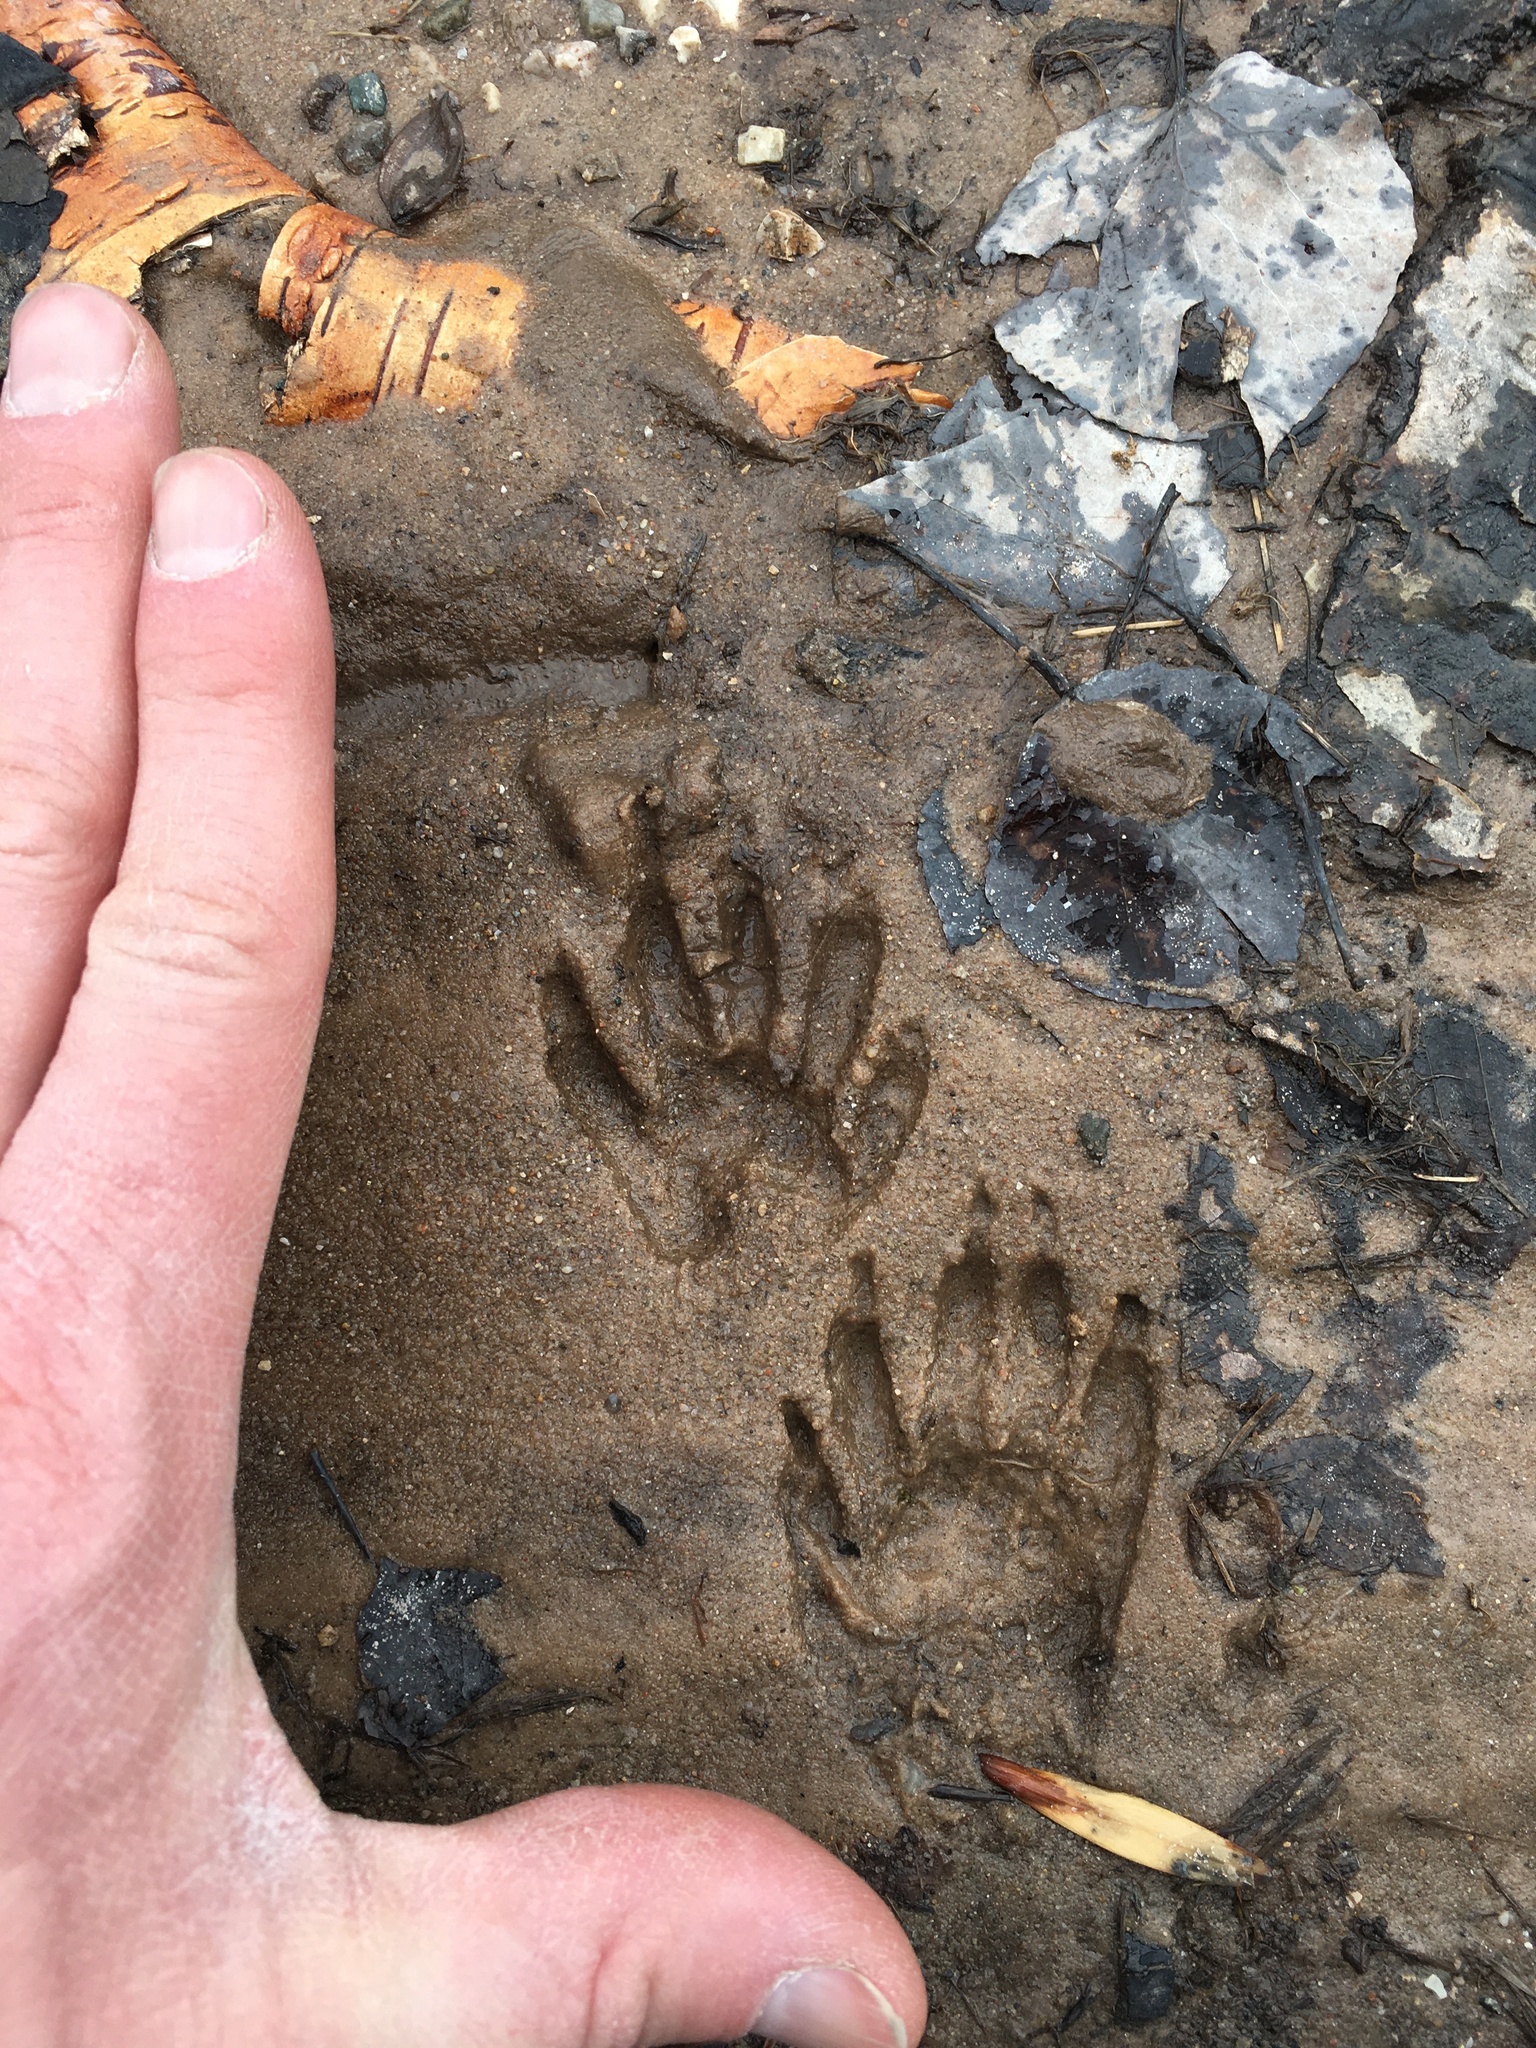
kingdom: Animalia
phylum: Chordata
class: Mammalia
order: Carnivora
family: Procyonidae
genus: Procyon
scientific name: Procyon lotor
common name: Raccoon
